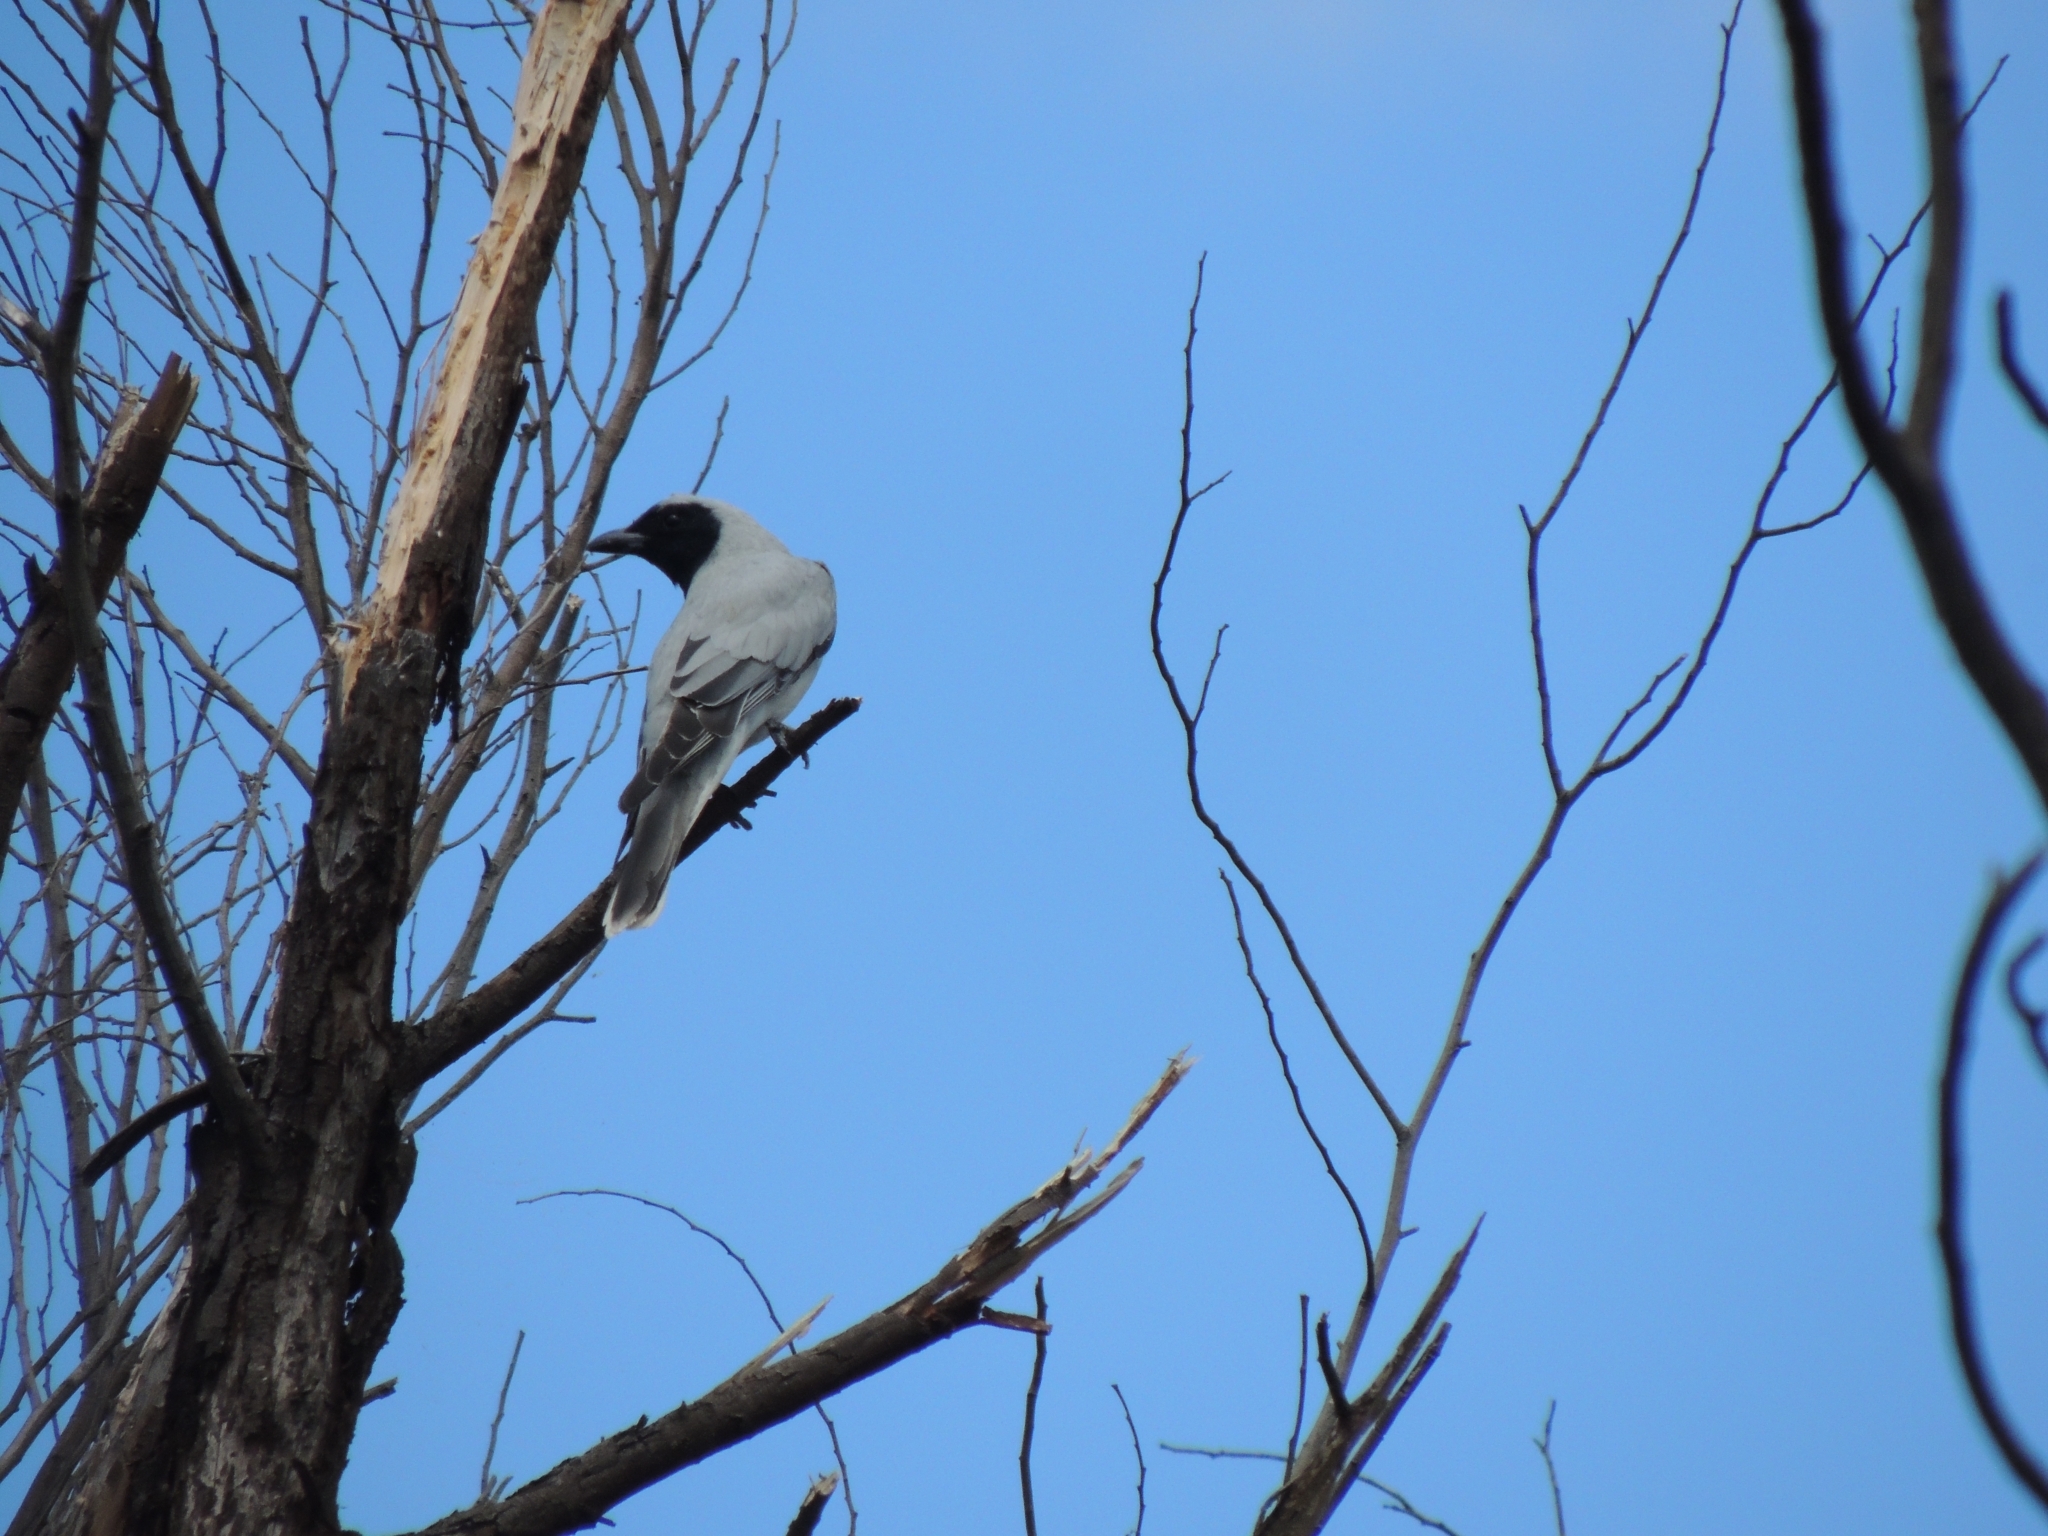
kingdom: Animalia
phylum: Chordata
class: Aves
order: Passeriformes
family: Campephagidae
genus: Coracina
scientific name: Coracina novaehollandiae
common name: Black-faced cuckooshrike
